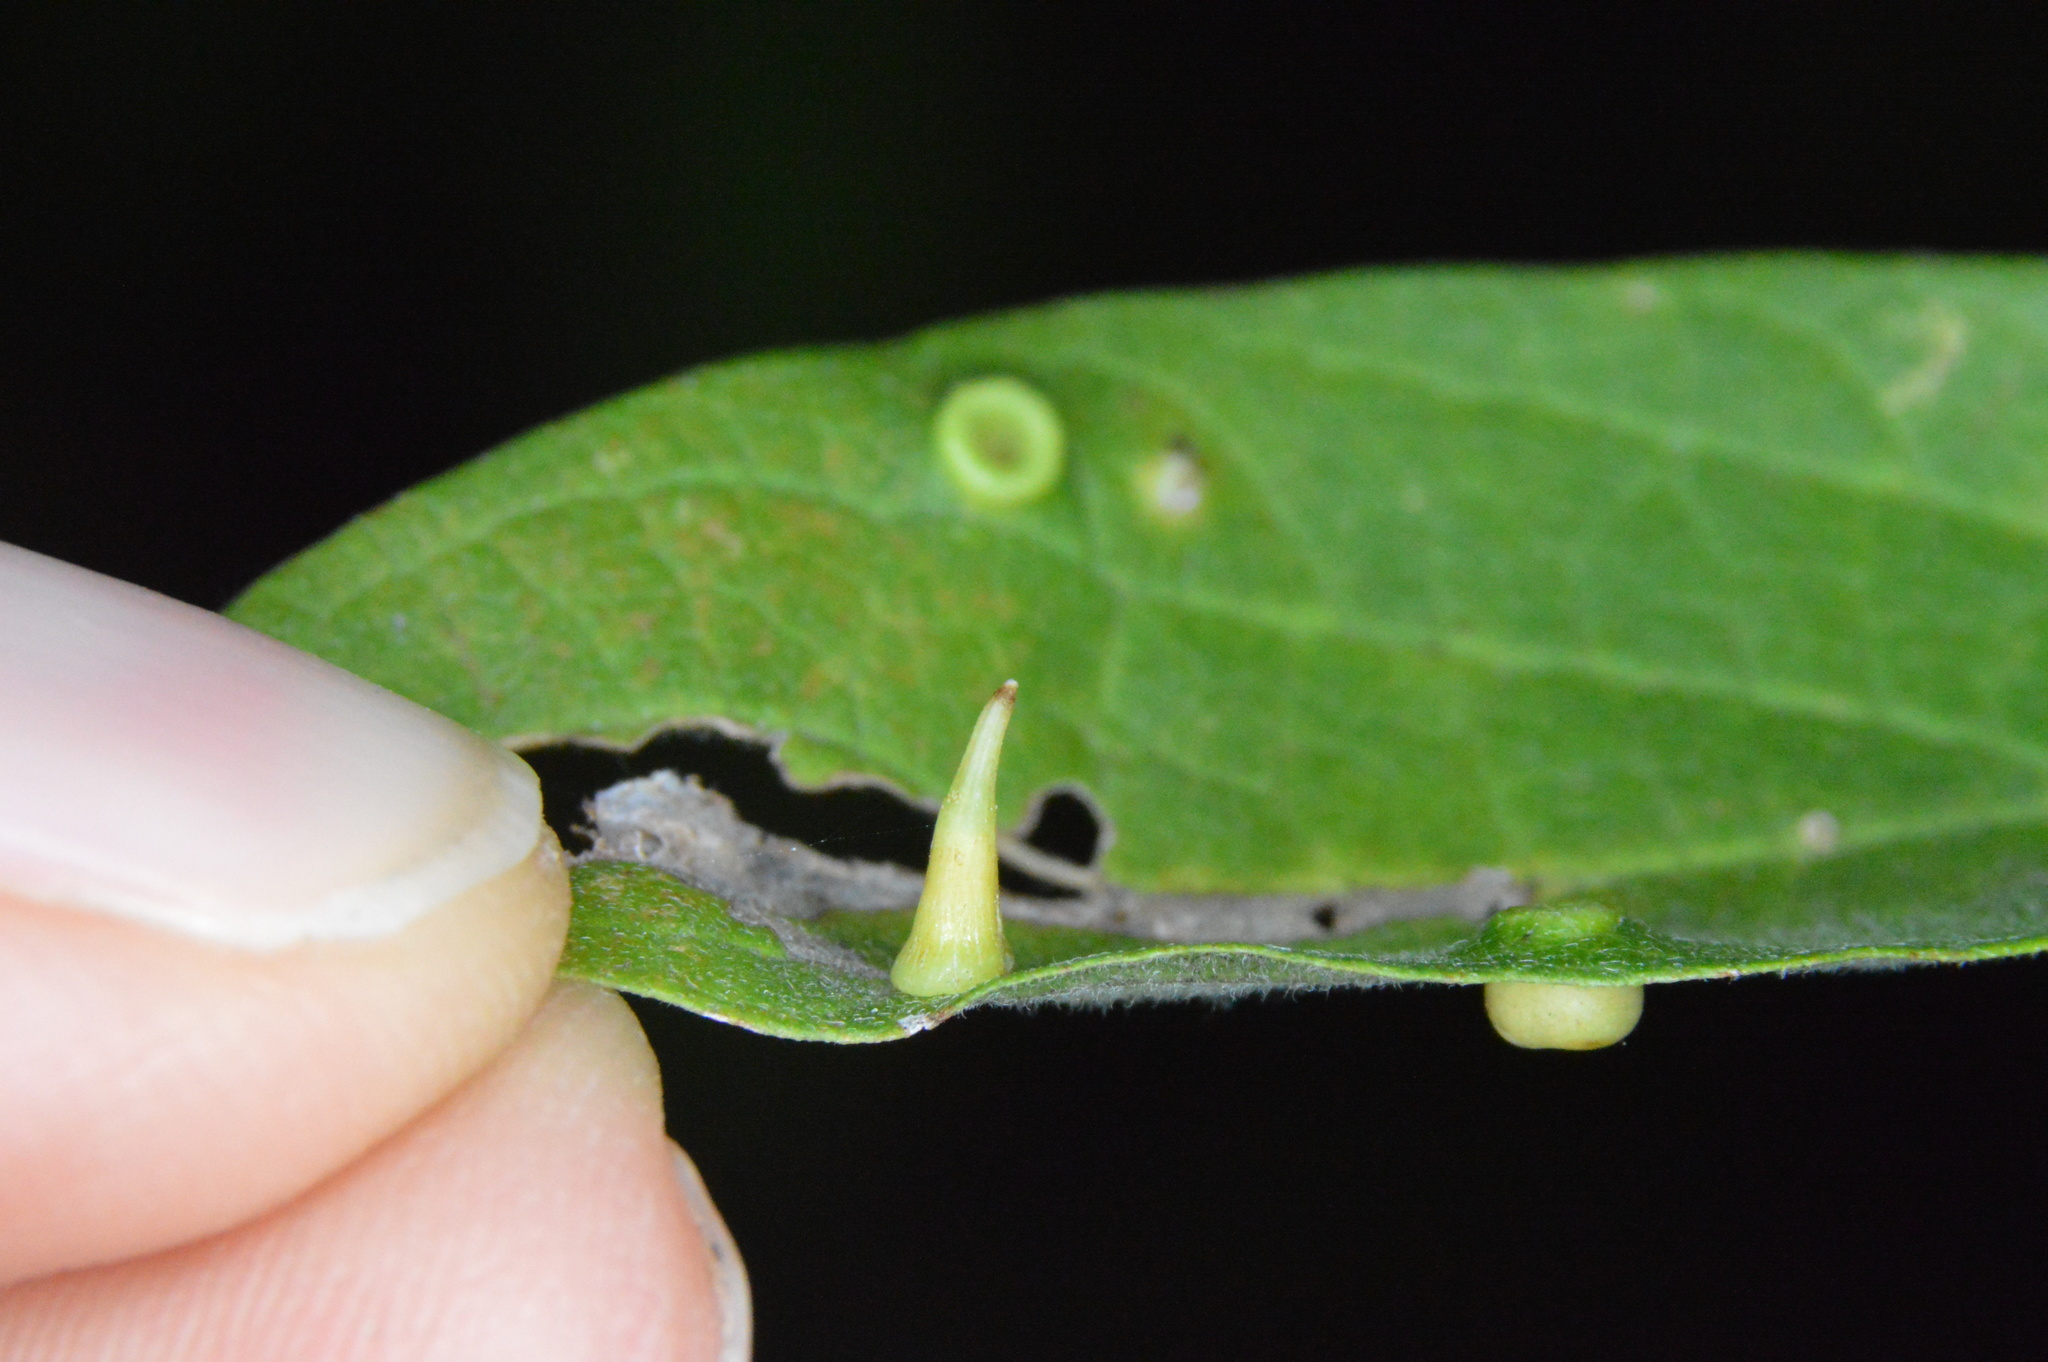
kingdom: Animalia
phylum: Arthropoda
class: Insecta
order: Diptera
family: Cecidomyiidae
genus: Celticecis
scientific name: Celticecis subulata
